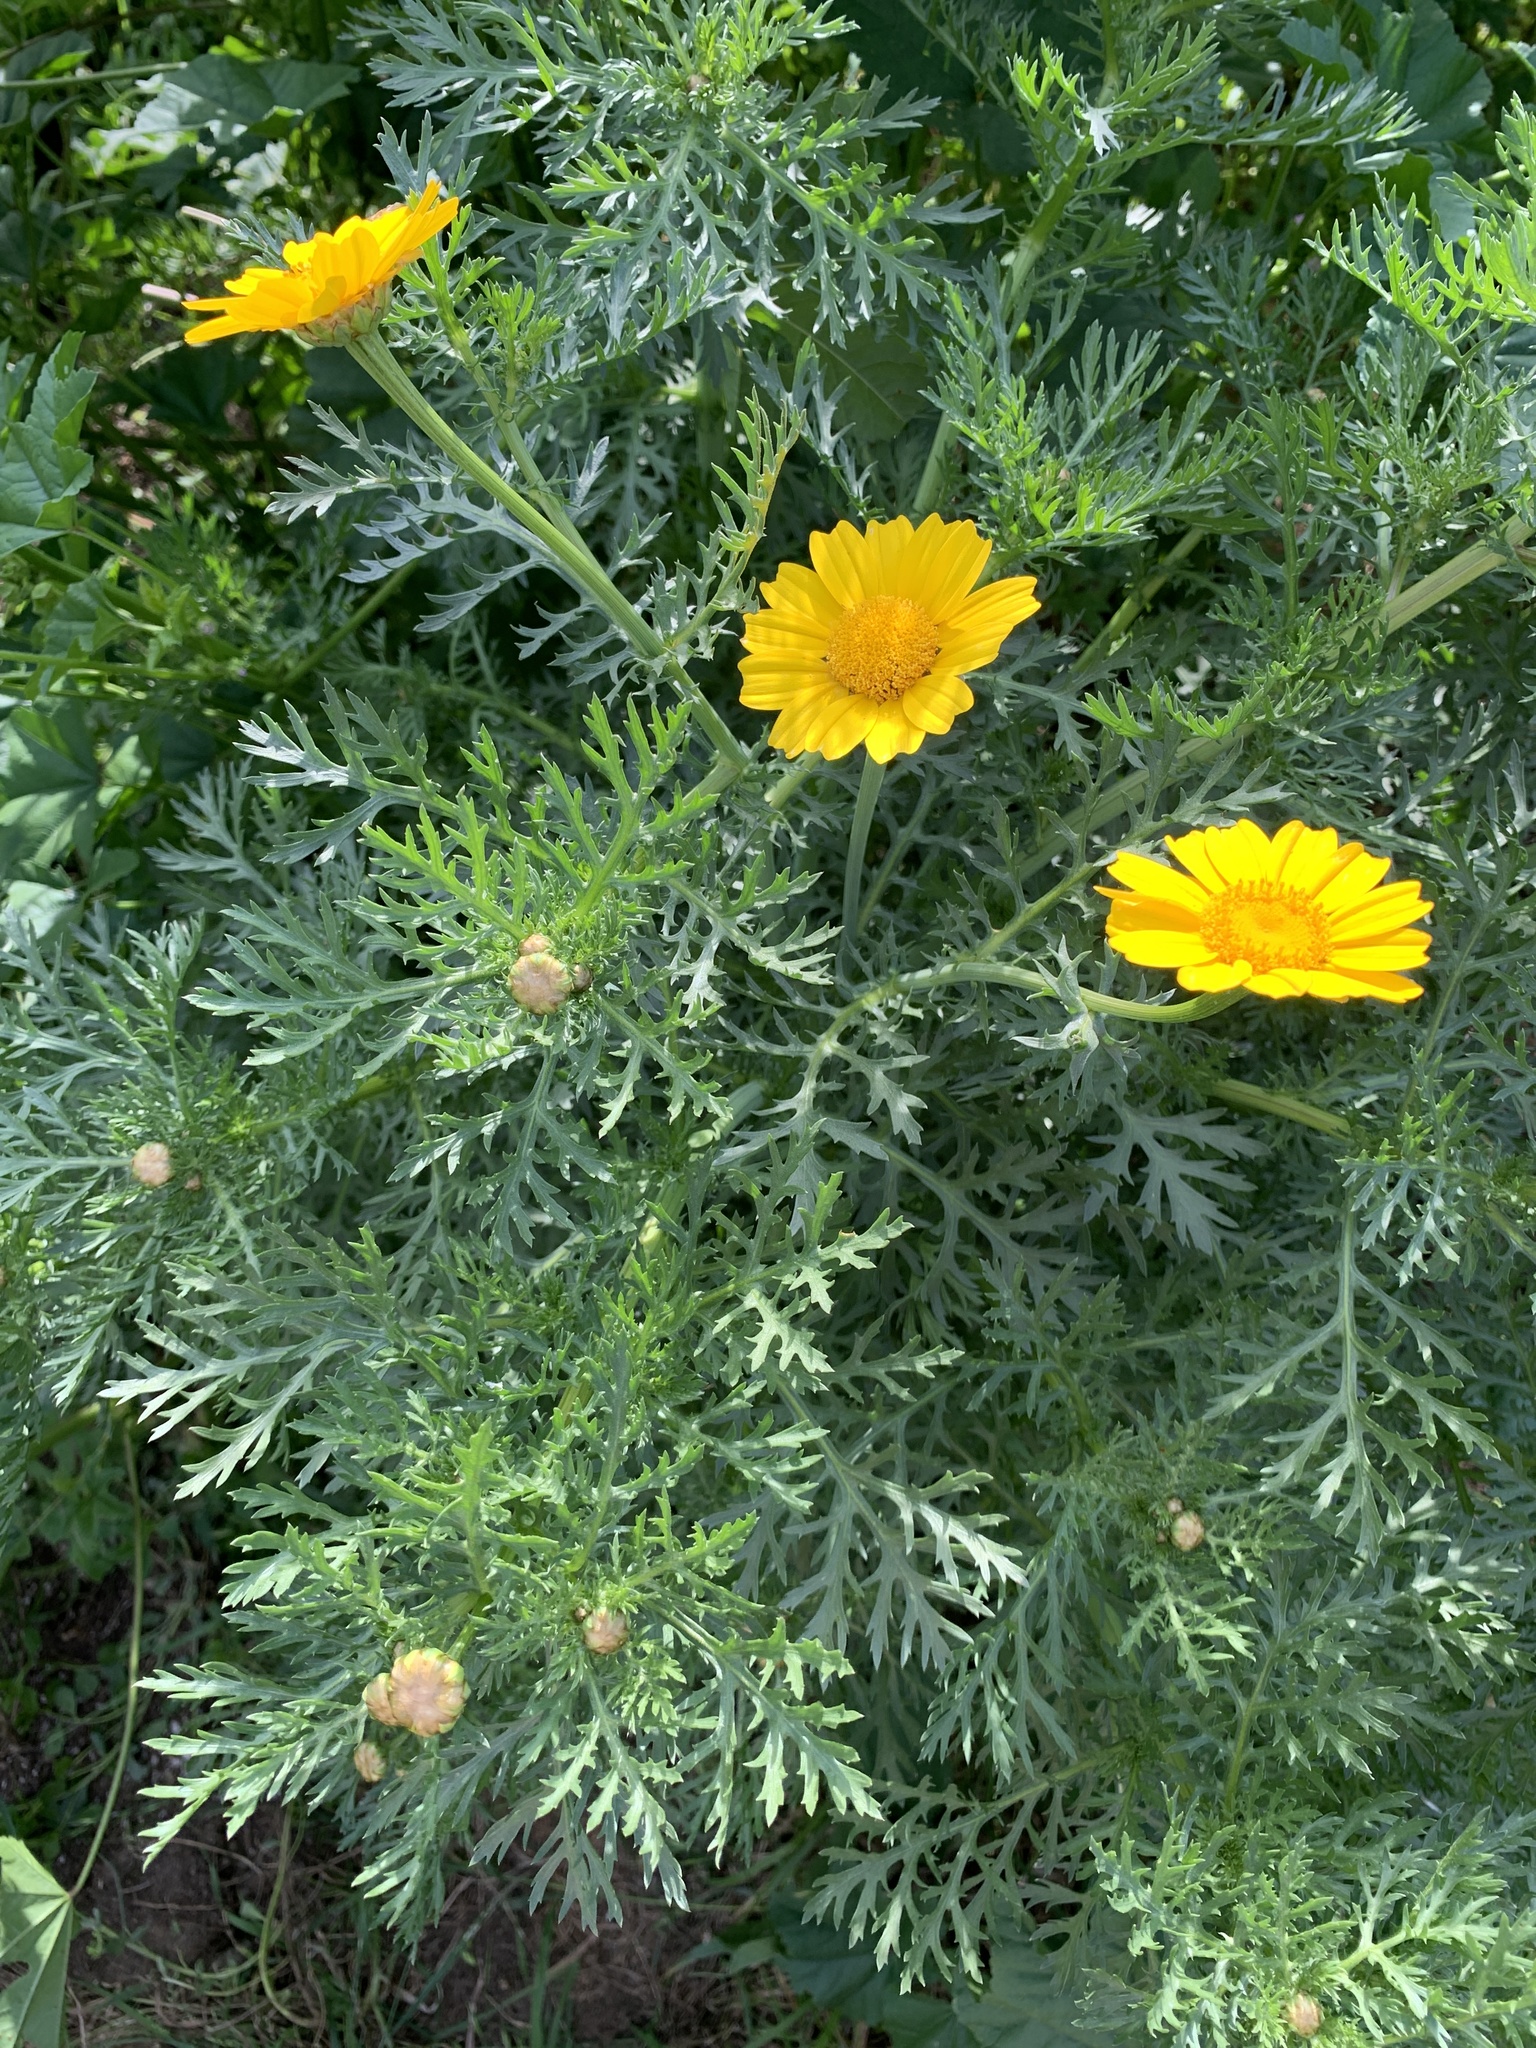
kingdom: Plantae
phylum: Tracheophyta
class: Magnoliopsida
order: Asterales
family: Asteraceae
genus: Glebionis
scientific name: Glebionis coronaria
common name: Crowndaisy
